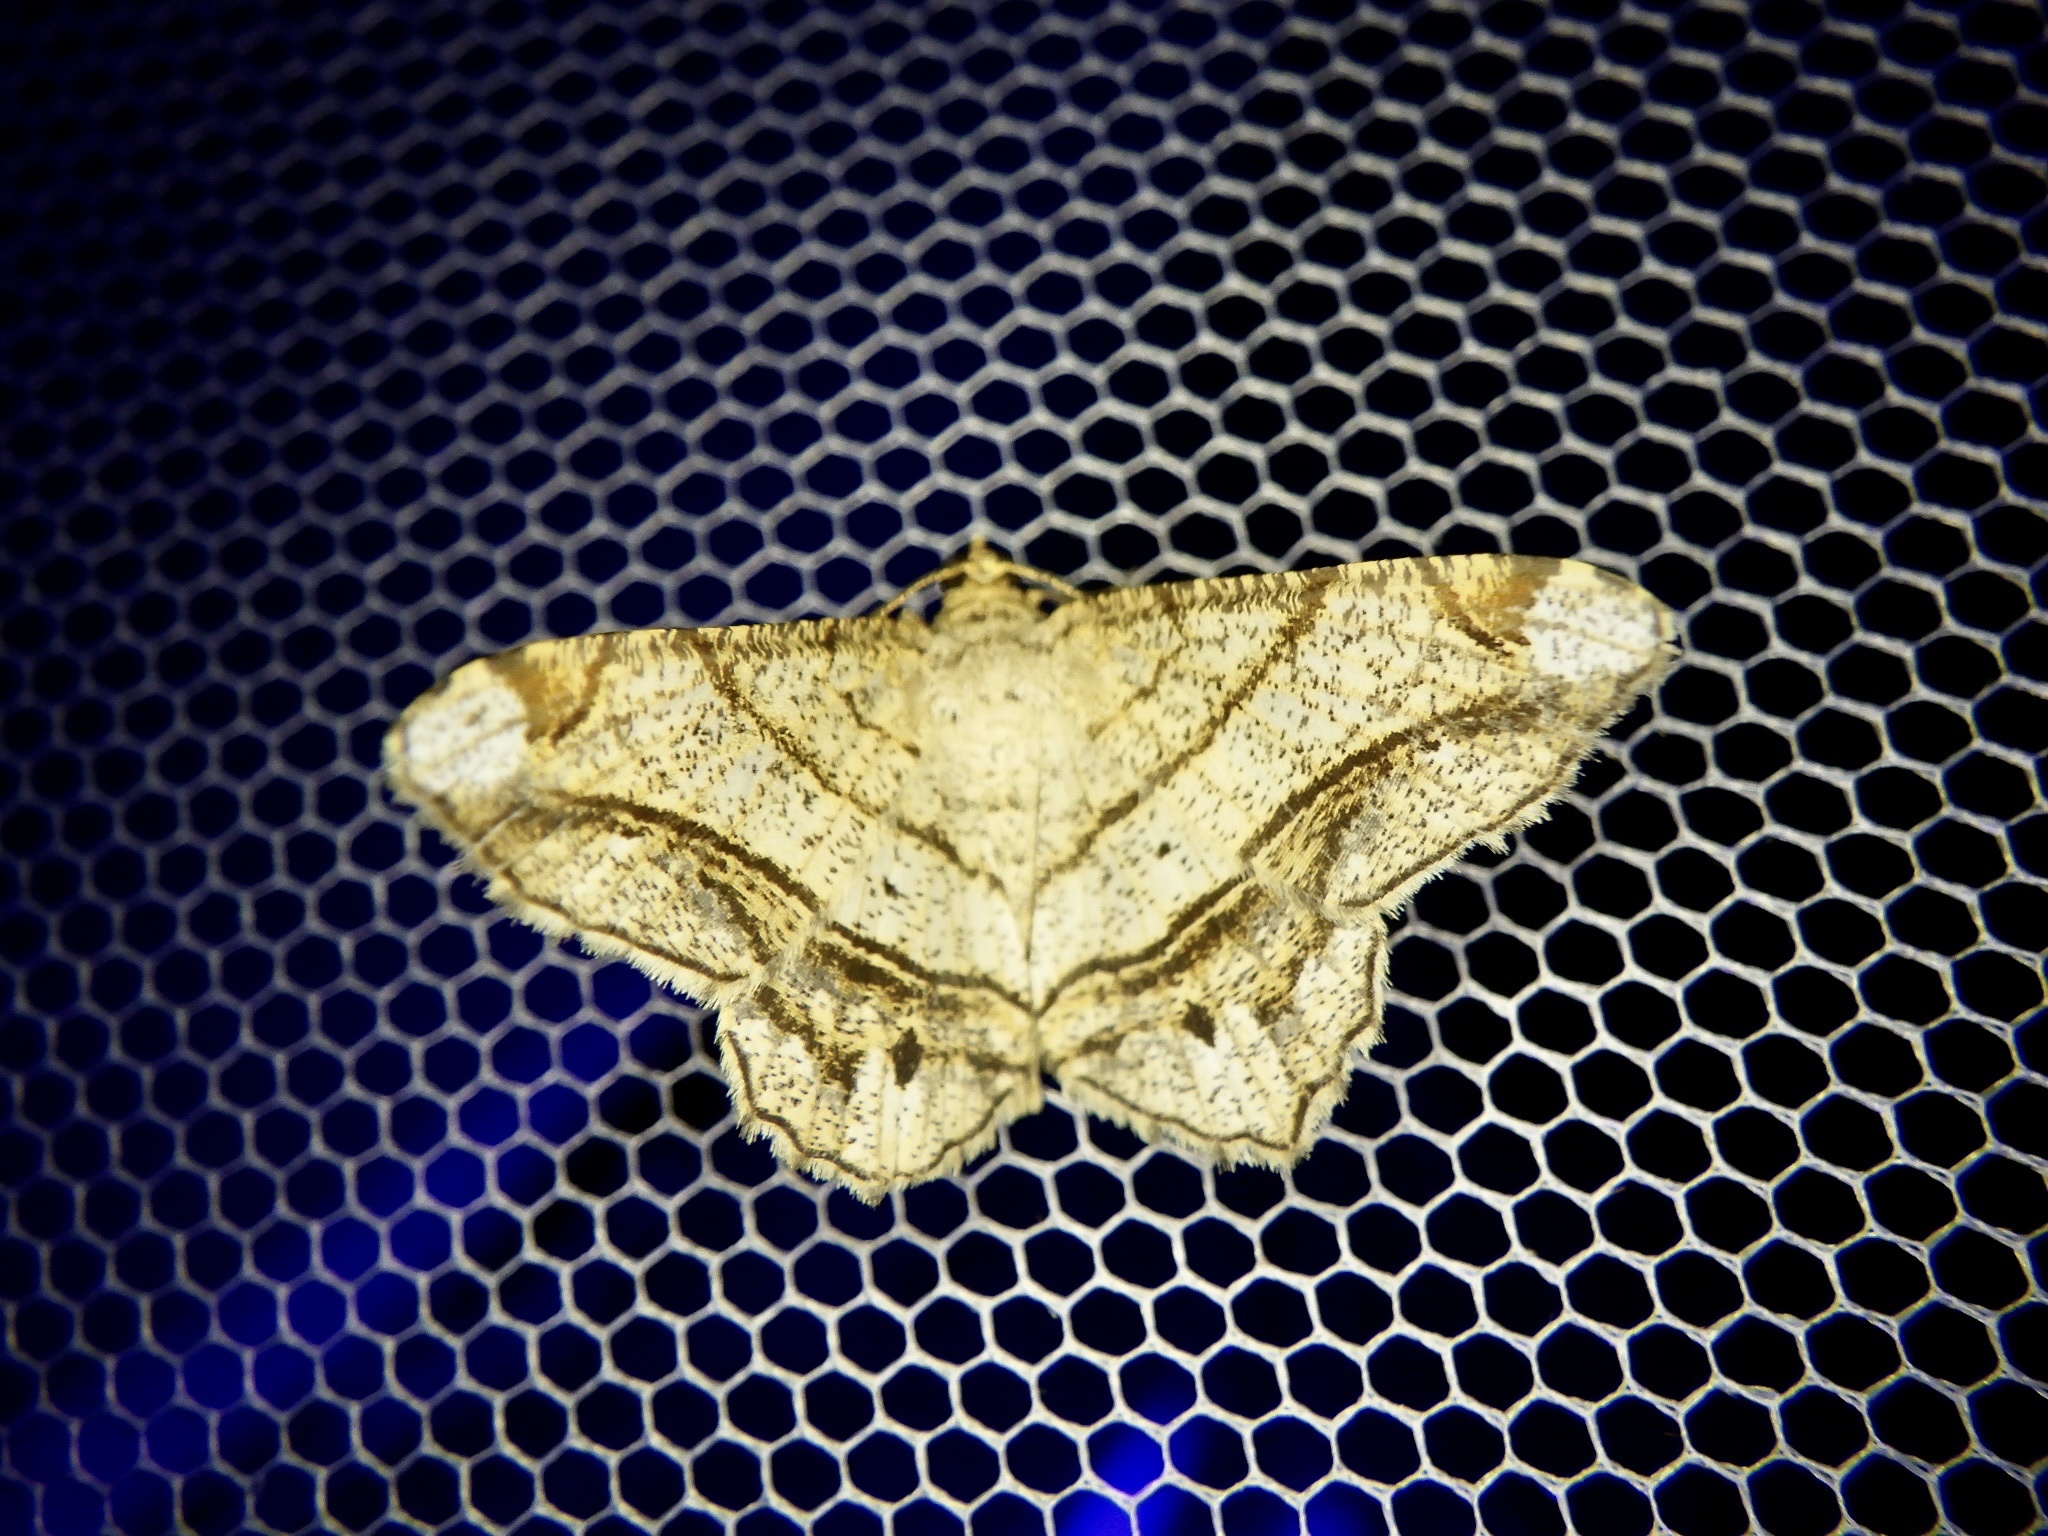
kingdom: Animalia
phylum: Arthropoda
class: Insecta
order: Lepidoptera
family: Geometridae
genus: Chiasmia
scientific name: Chiasmia defixaria
